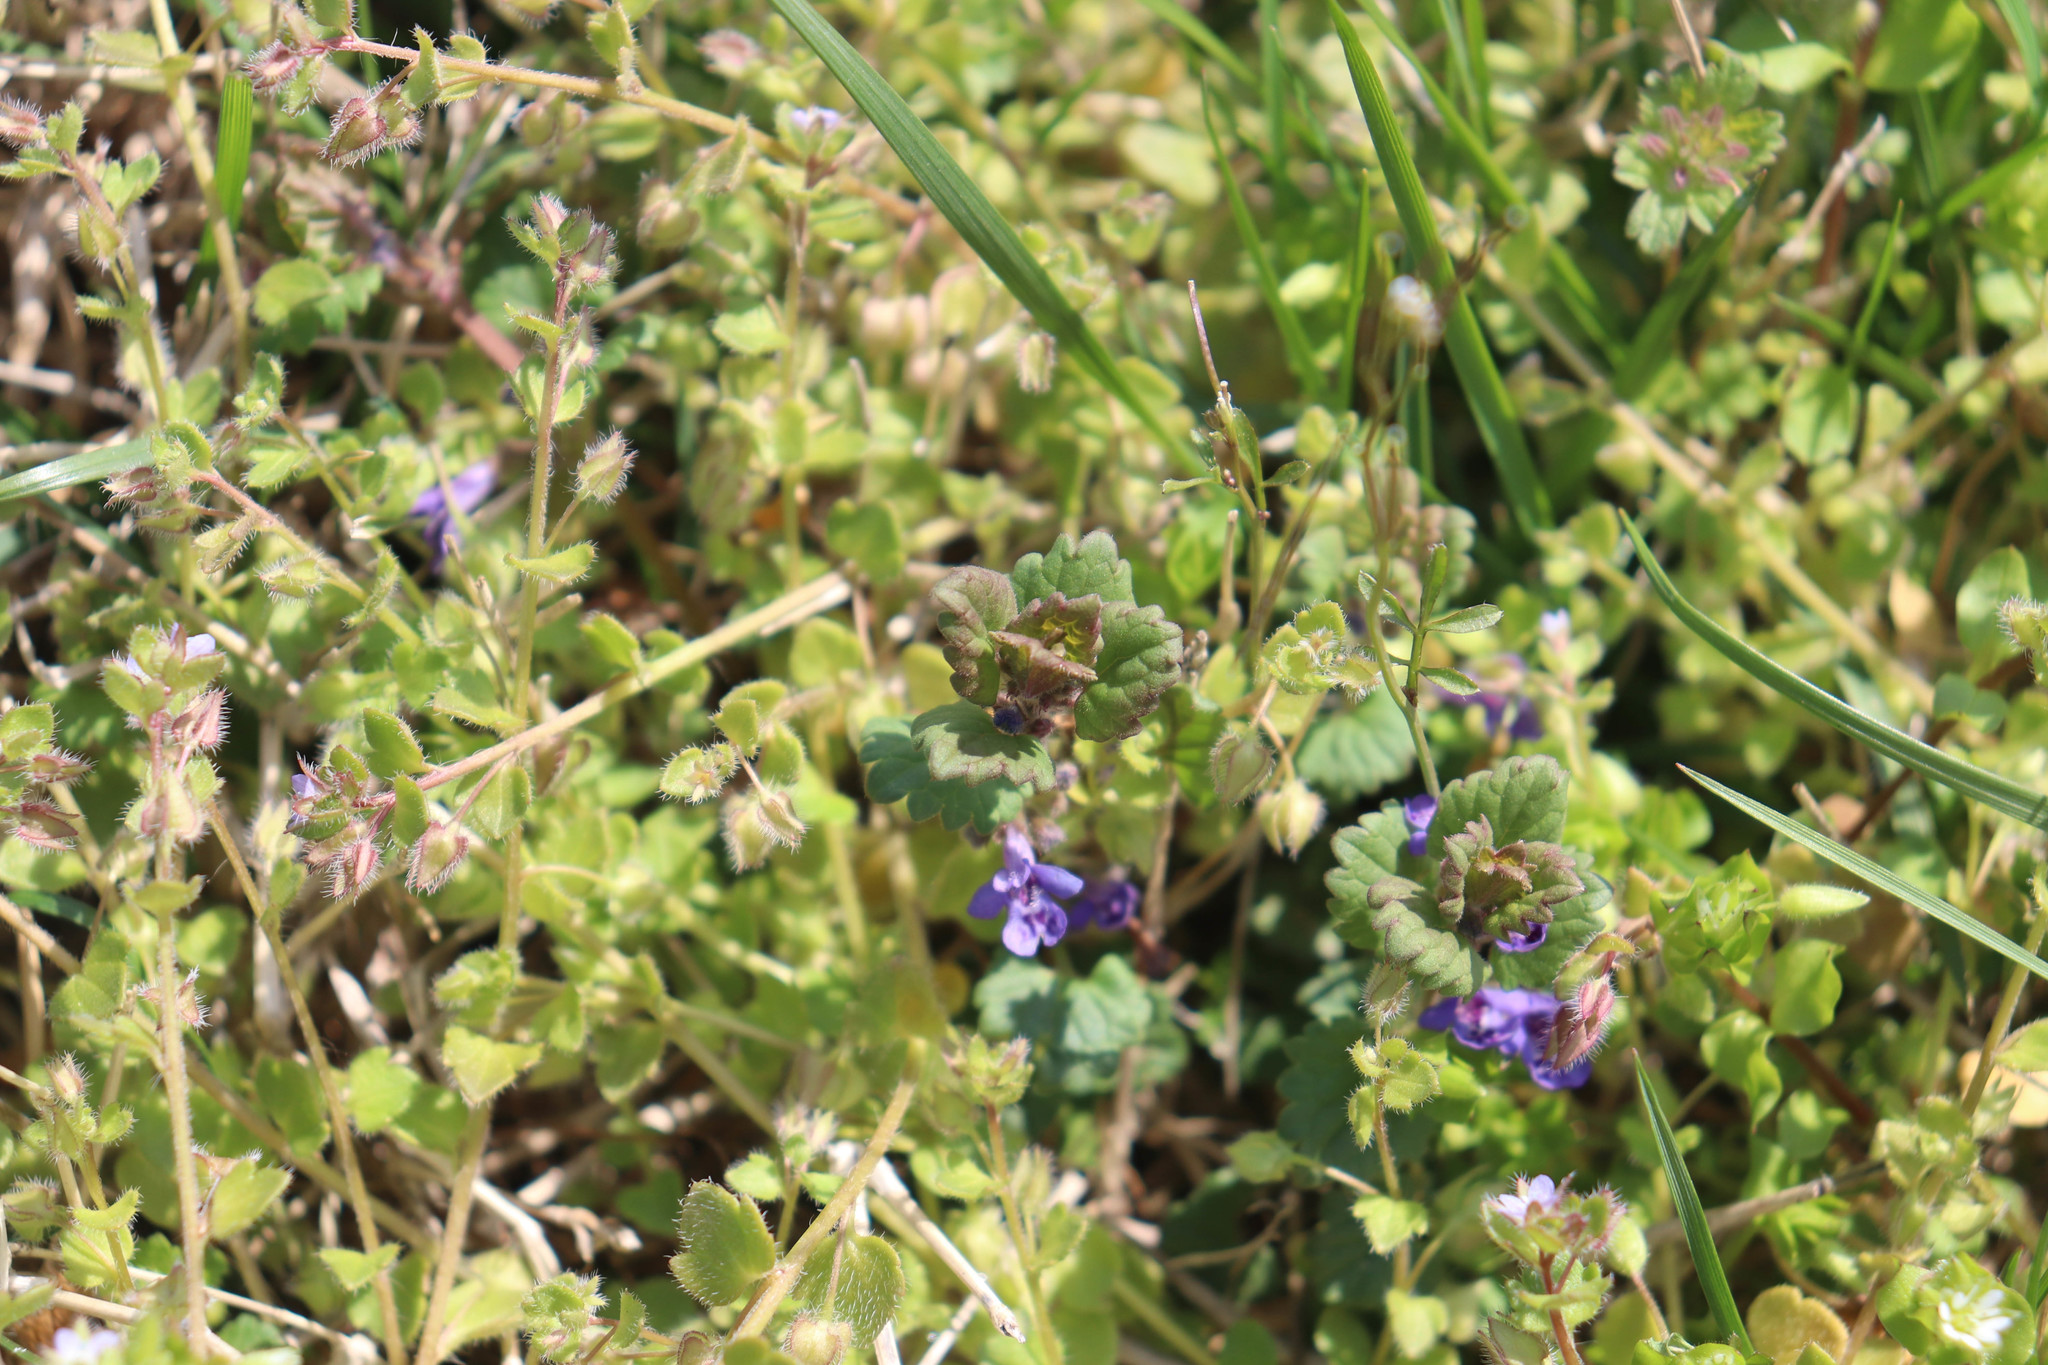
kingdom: Plantae
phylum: Tracheophyta
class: Magnoliopsida
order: Lamiales
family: Lamiaceae
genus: Glechoma
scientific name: Glechoma hederacea
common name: Ground ivy
